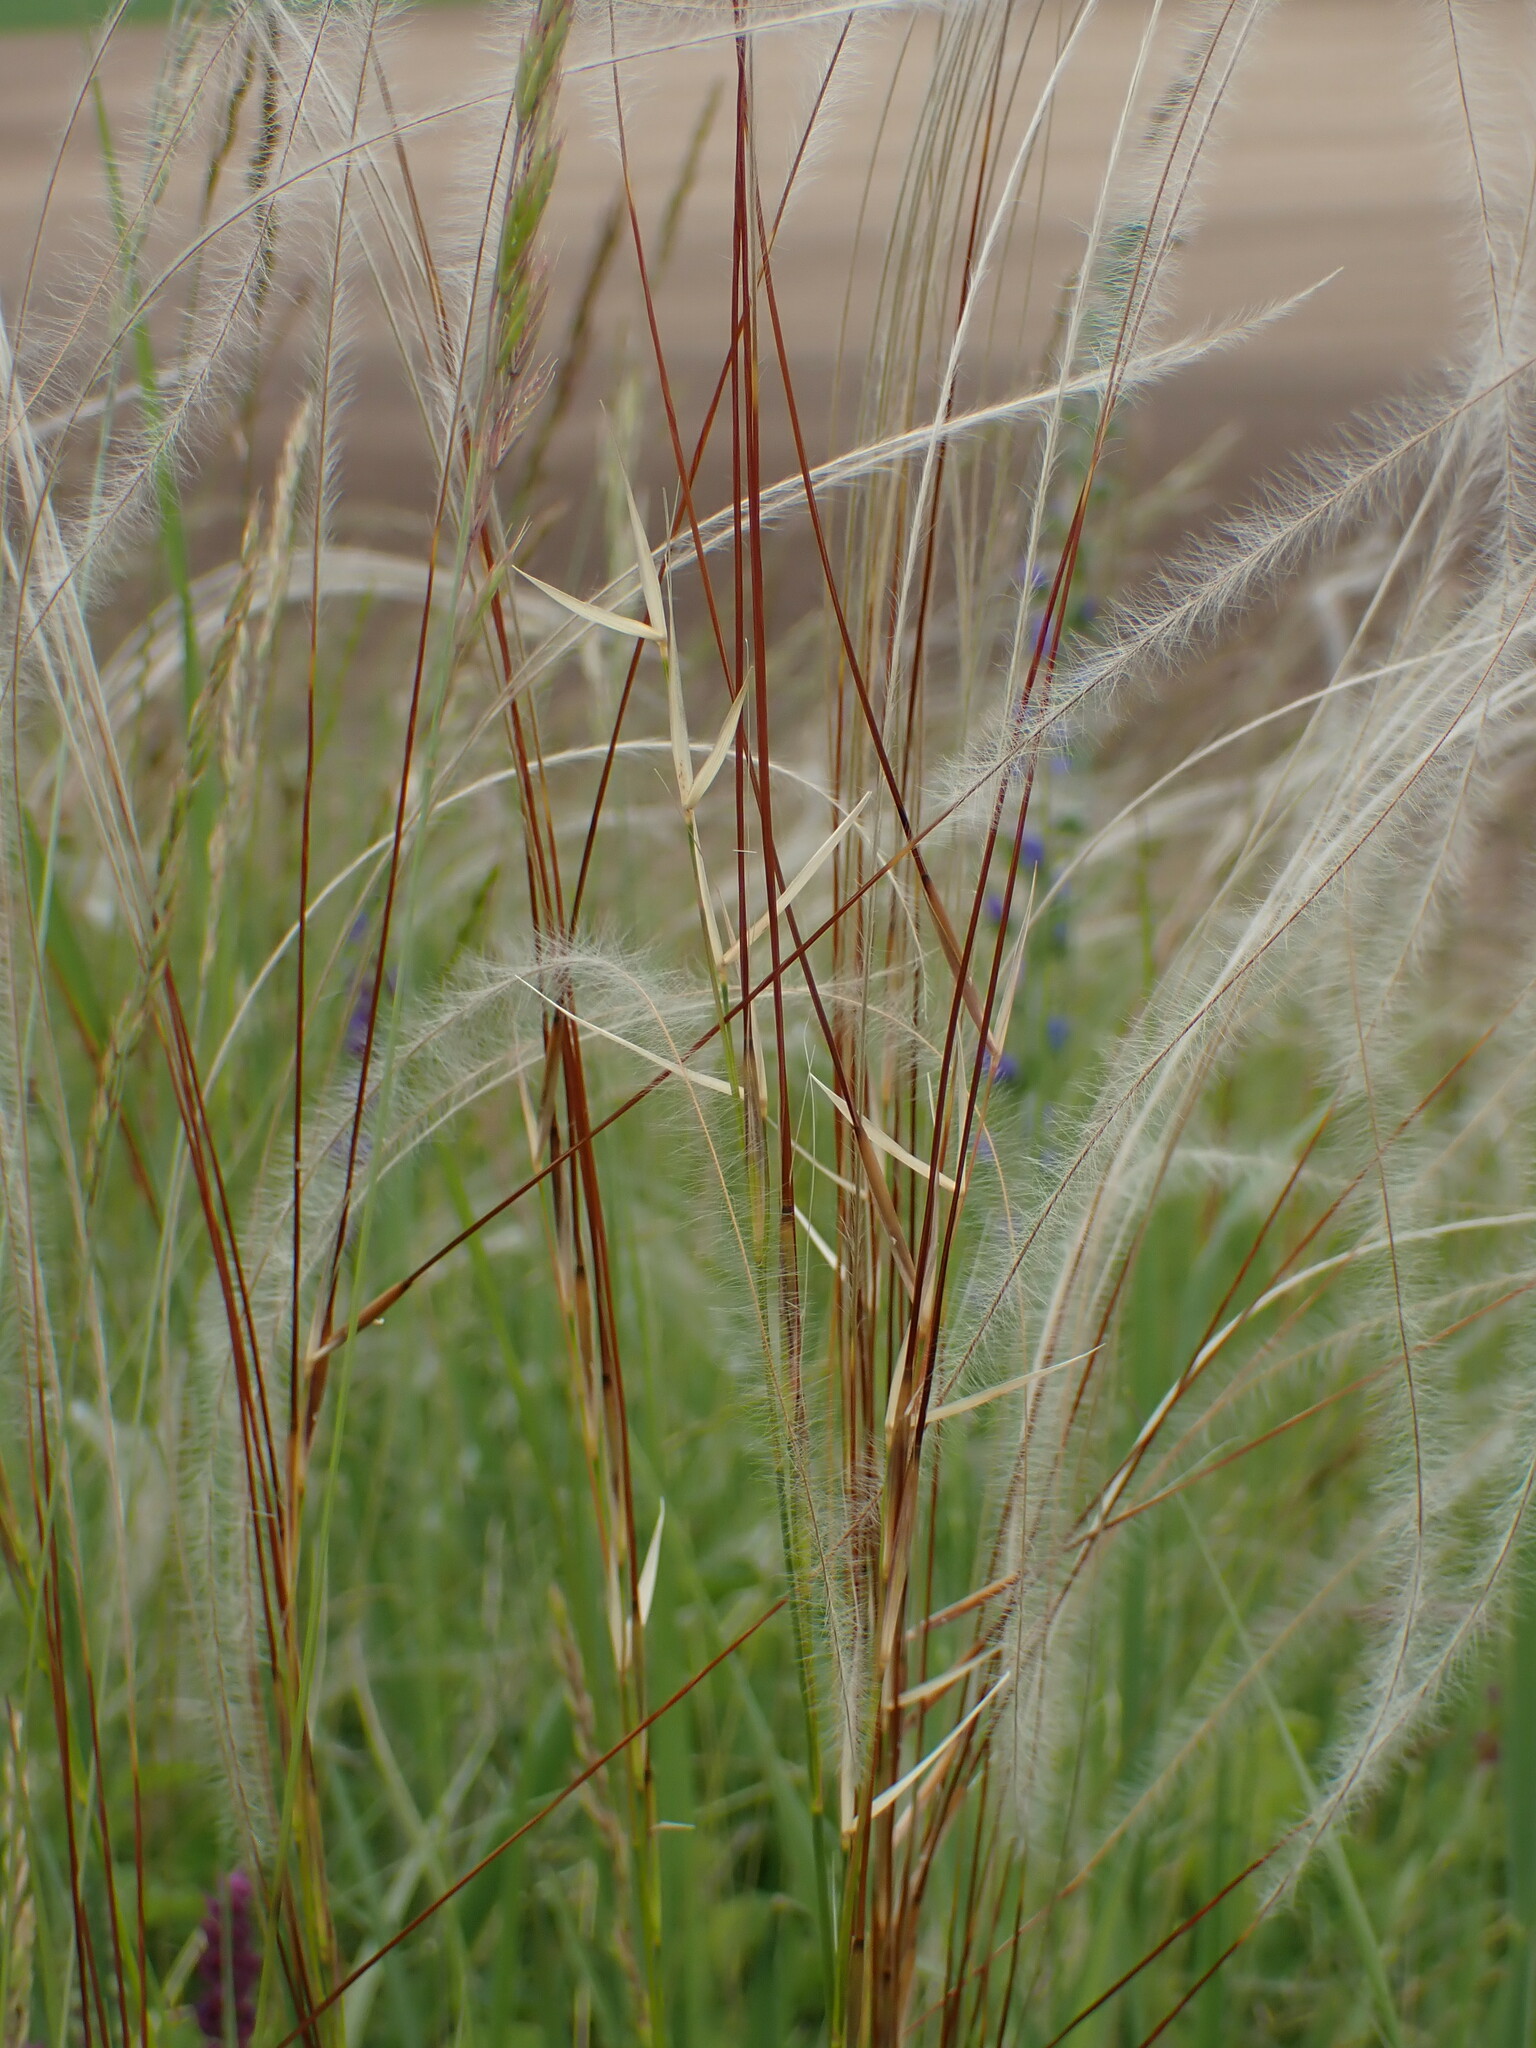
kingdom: Plantae
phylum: Tracheophyta
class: Liliopsida
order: Poales
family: Poaceae
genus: Stipa
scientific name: Stipa pennata
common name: European feather grass
